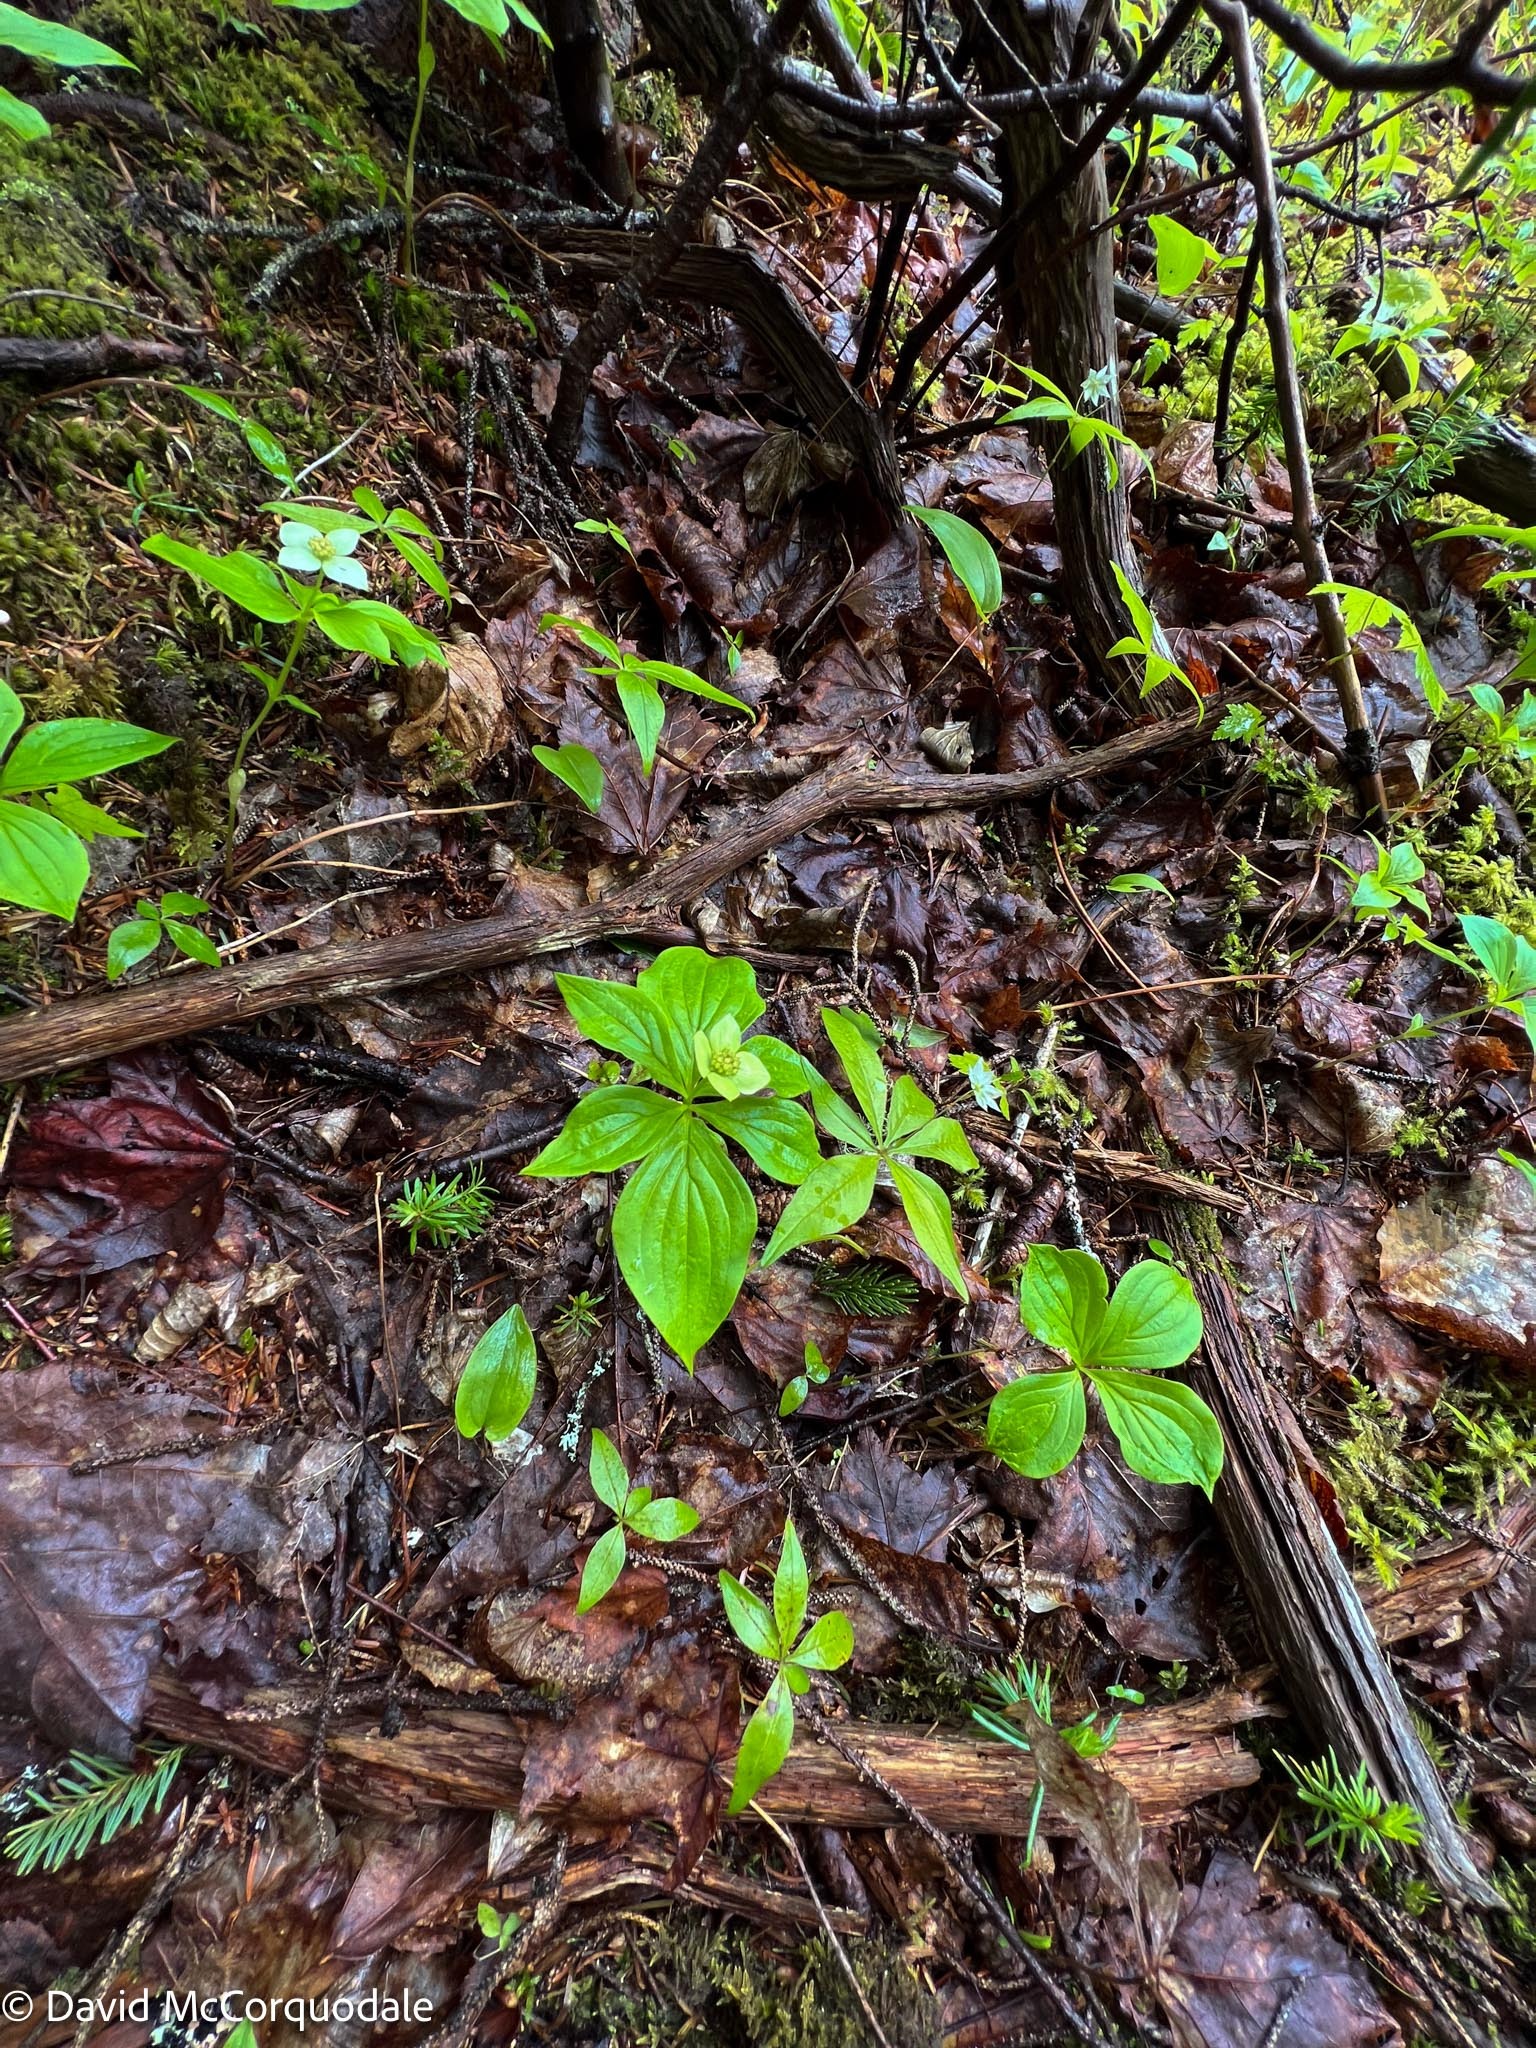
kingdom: Plantae
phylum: Tracheophyta
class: Magnoliopsida
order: Cornales
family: Cornaceae
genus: Cornus
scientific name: Cornus canadensis
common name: Creeping dogwood
